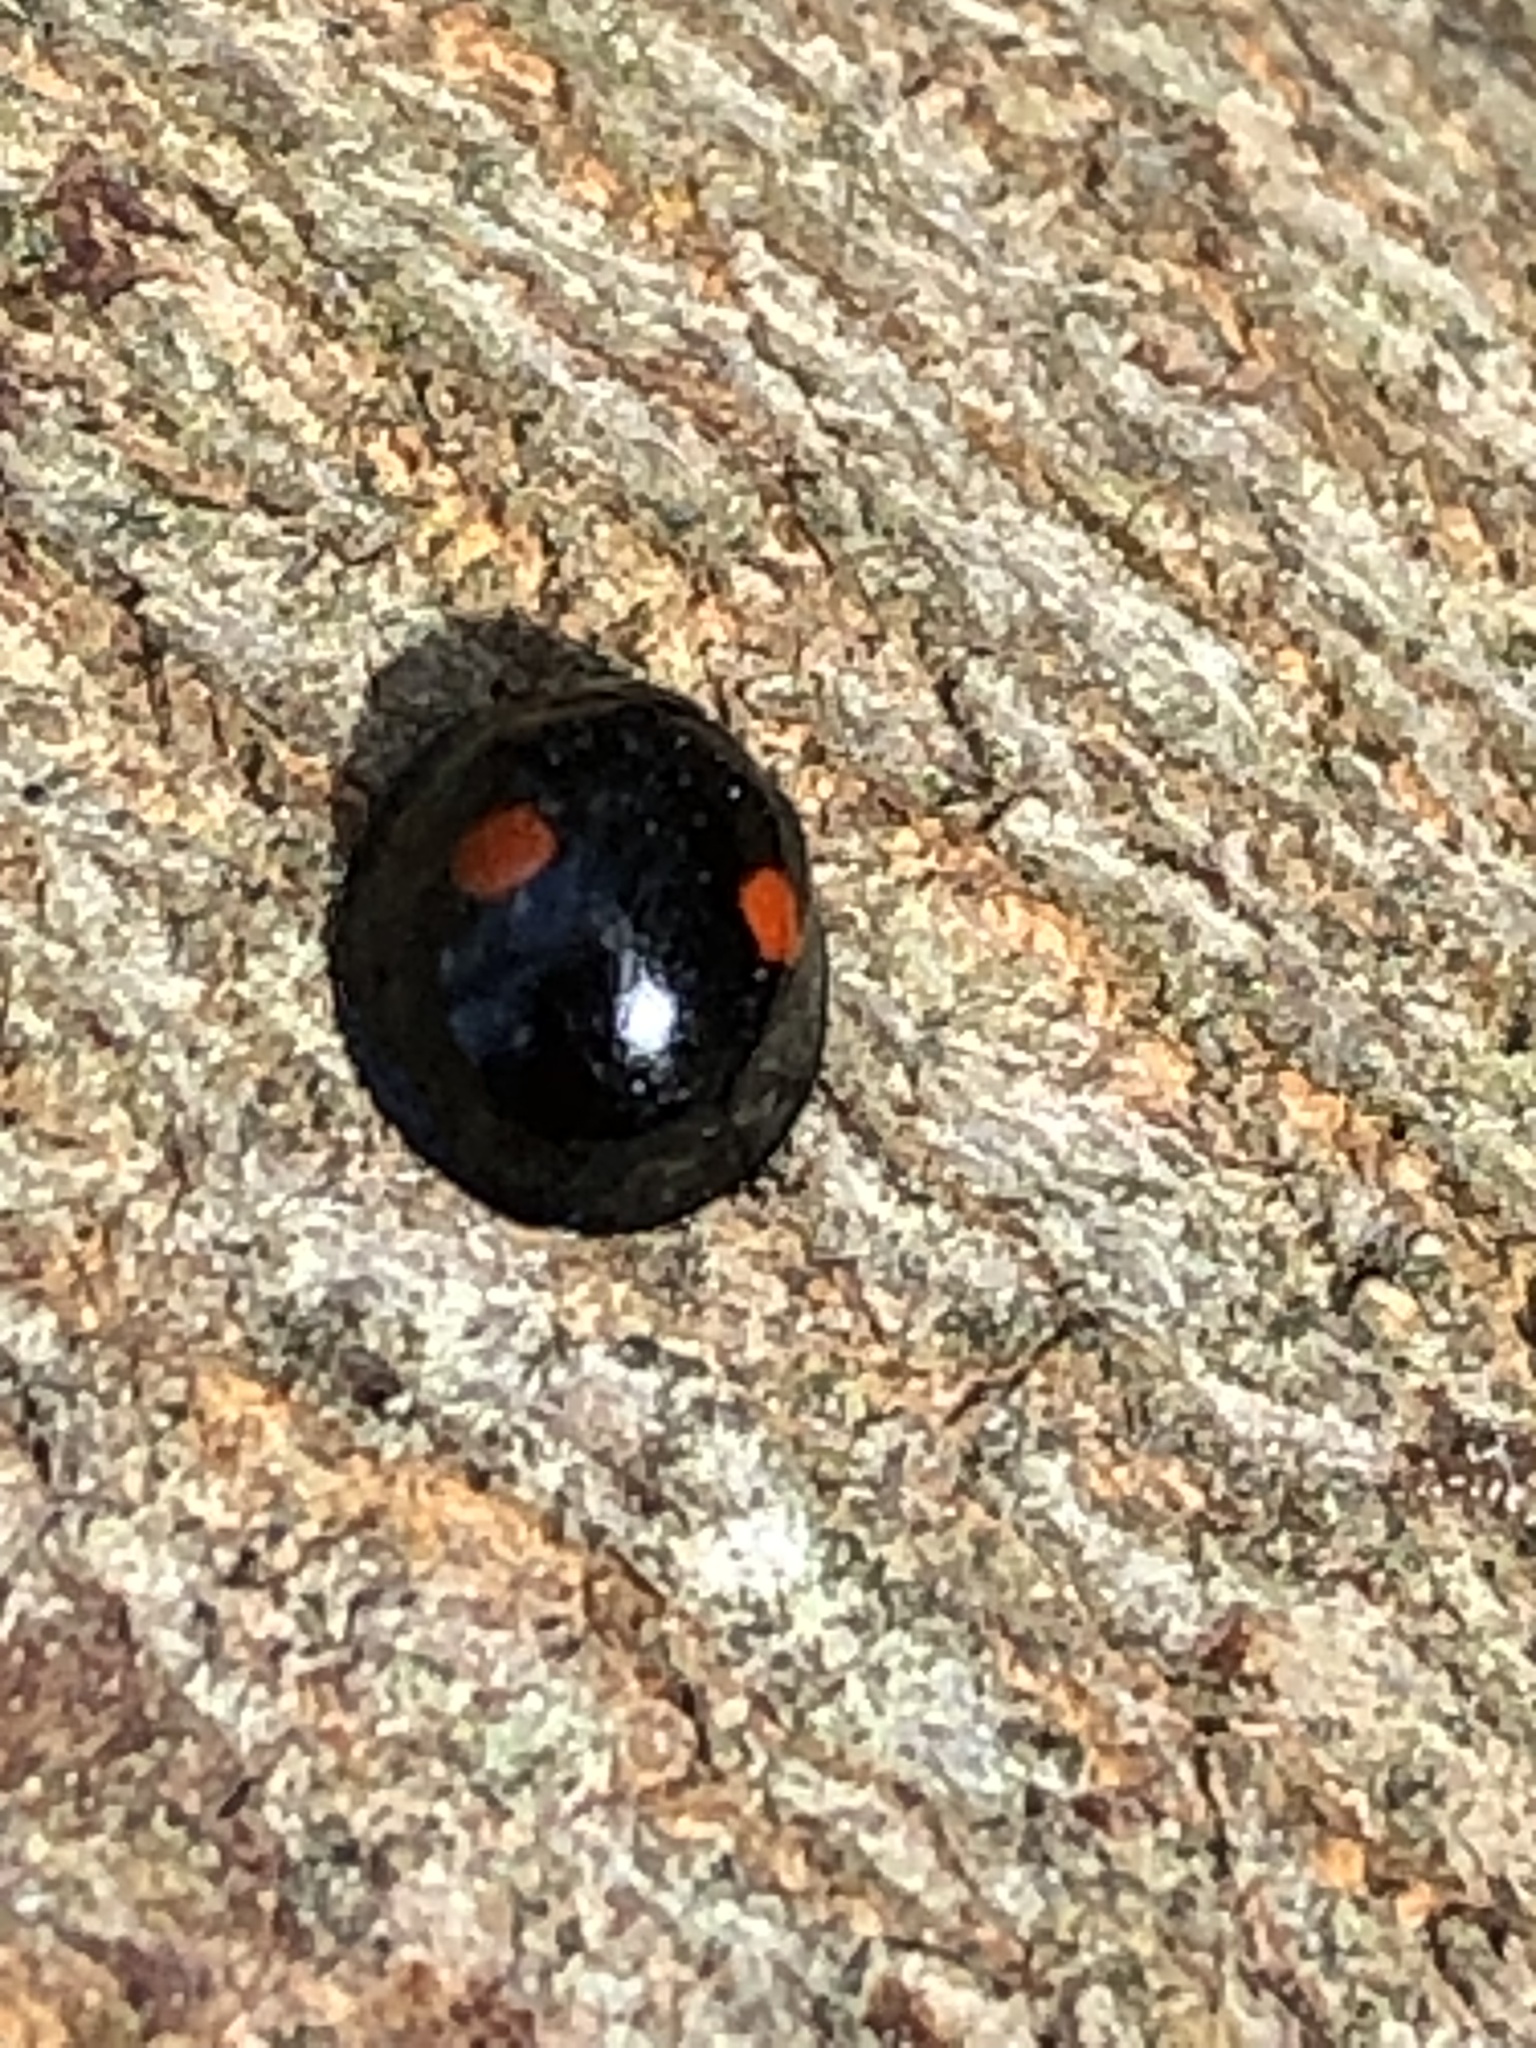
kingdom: Animalia
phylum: Arthropoda
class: Insecta
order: Coleoptera
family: Coccinellidae
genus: Chilocorus
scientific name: Chilocorus stigma
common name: Twicestabbed lady beetle
